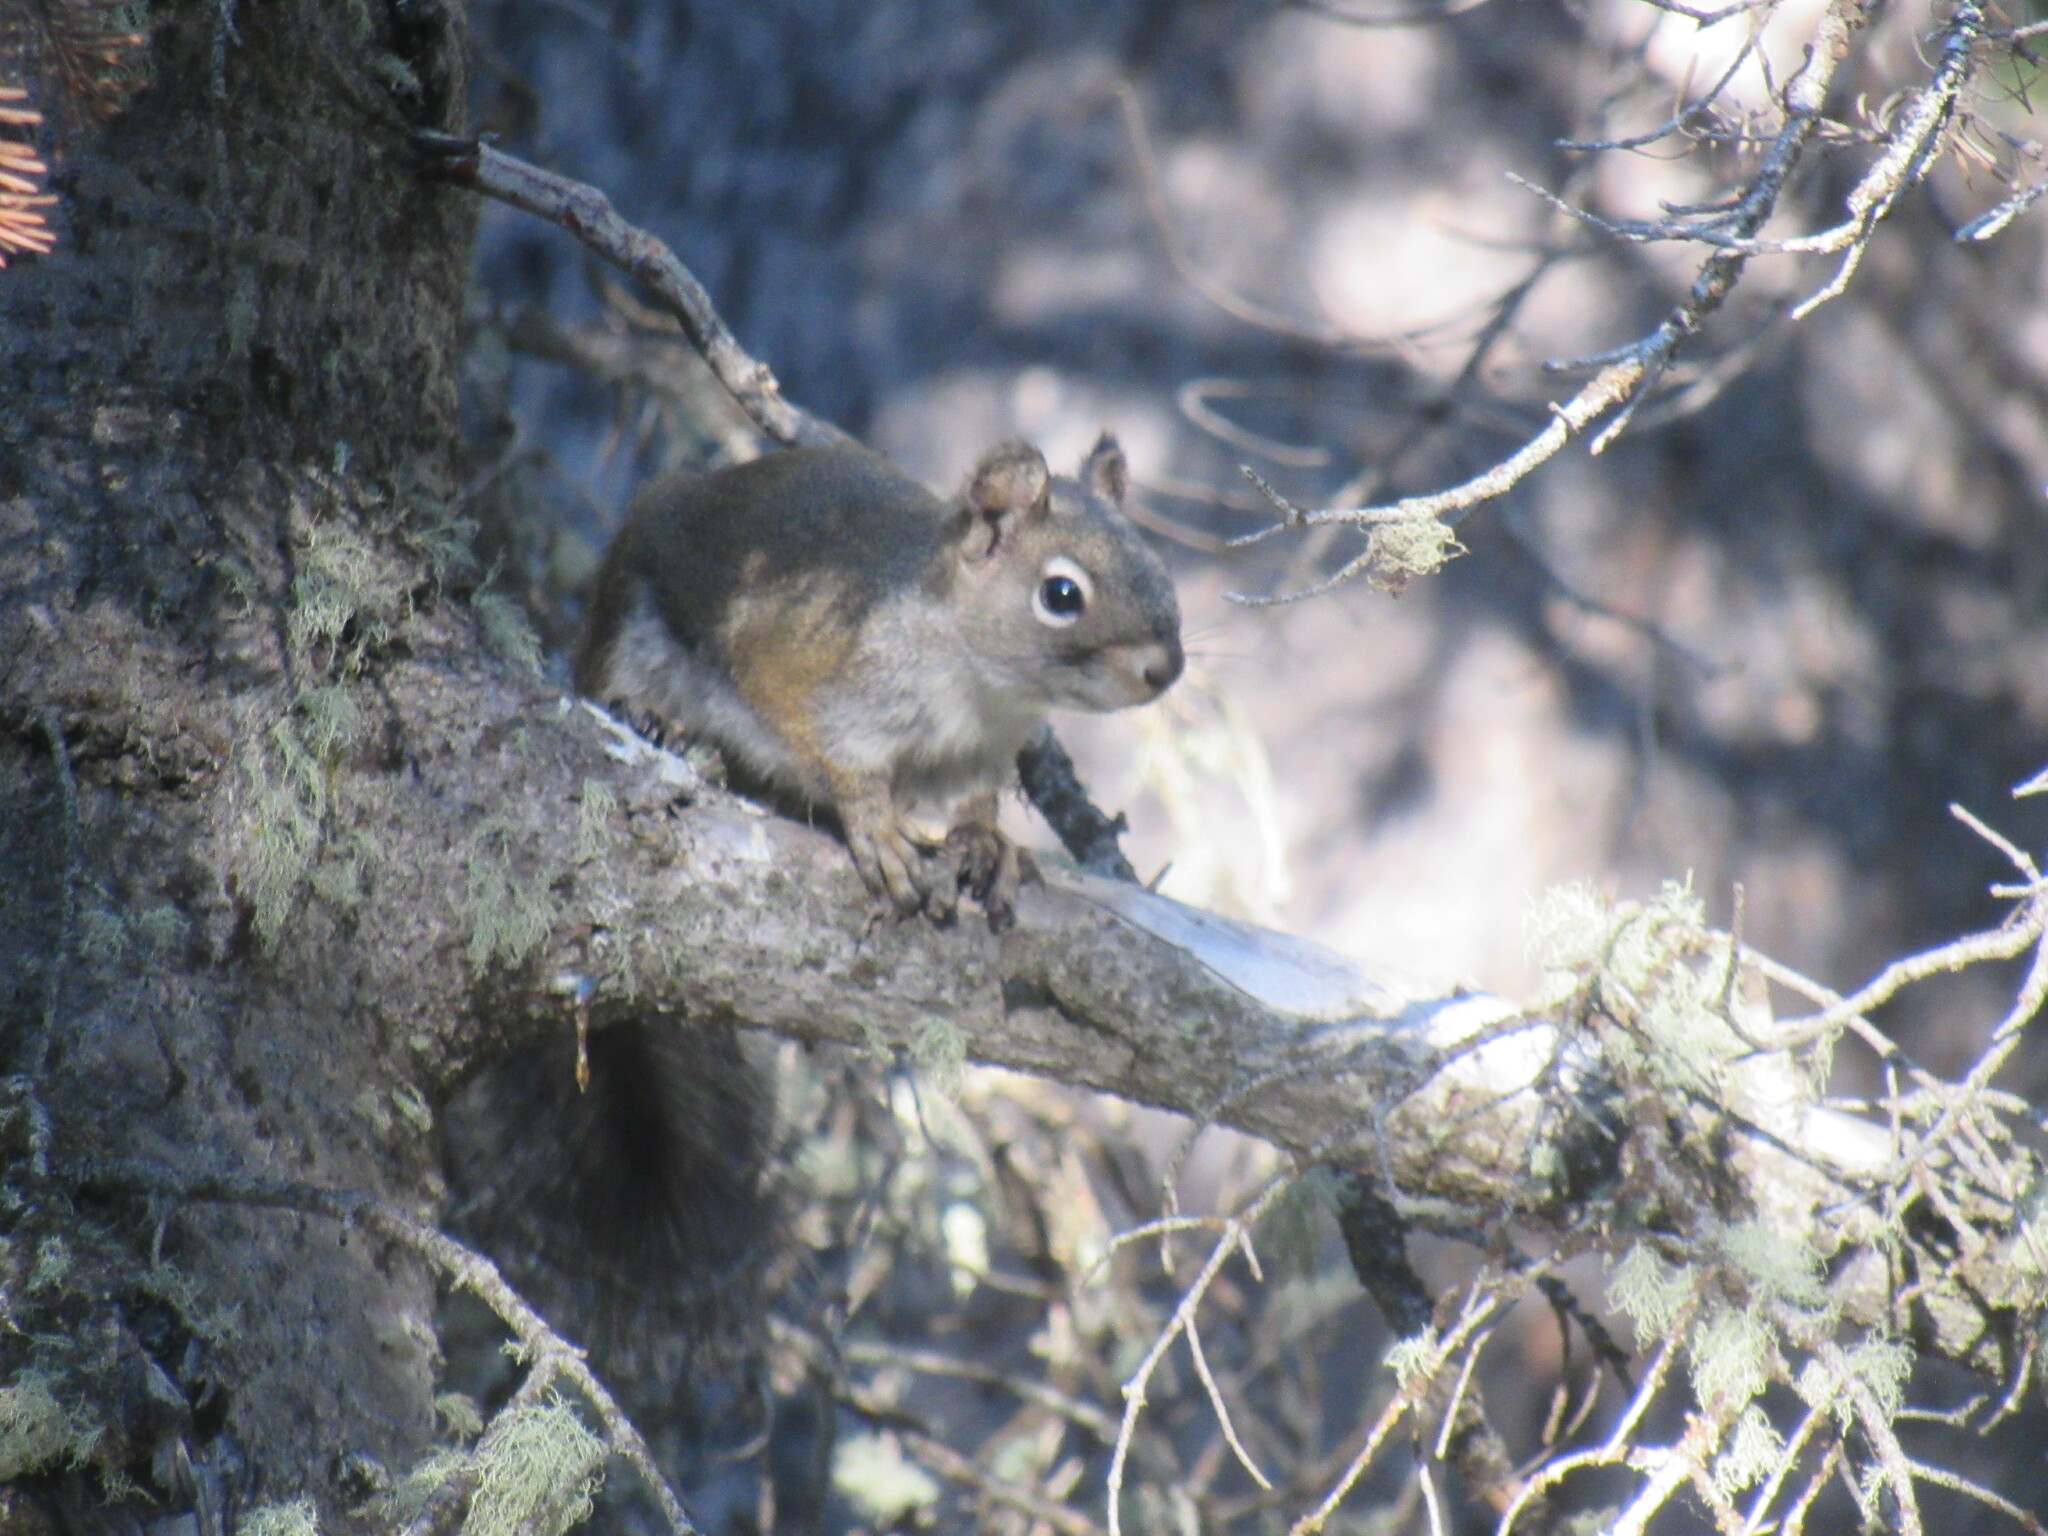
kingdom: Animalia
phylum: Chordata
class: Mammalia
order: Rodentia
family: Sciuridae
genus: Tamiasciurus
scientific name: Tamiasciurus hudsonicus
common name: Red squirrel
